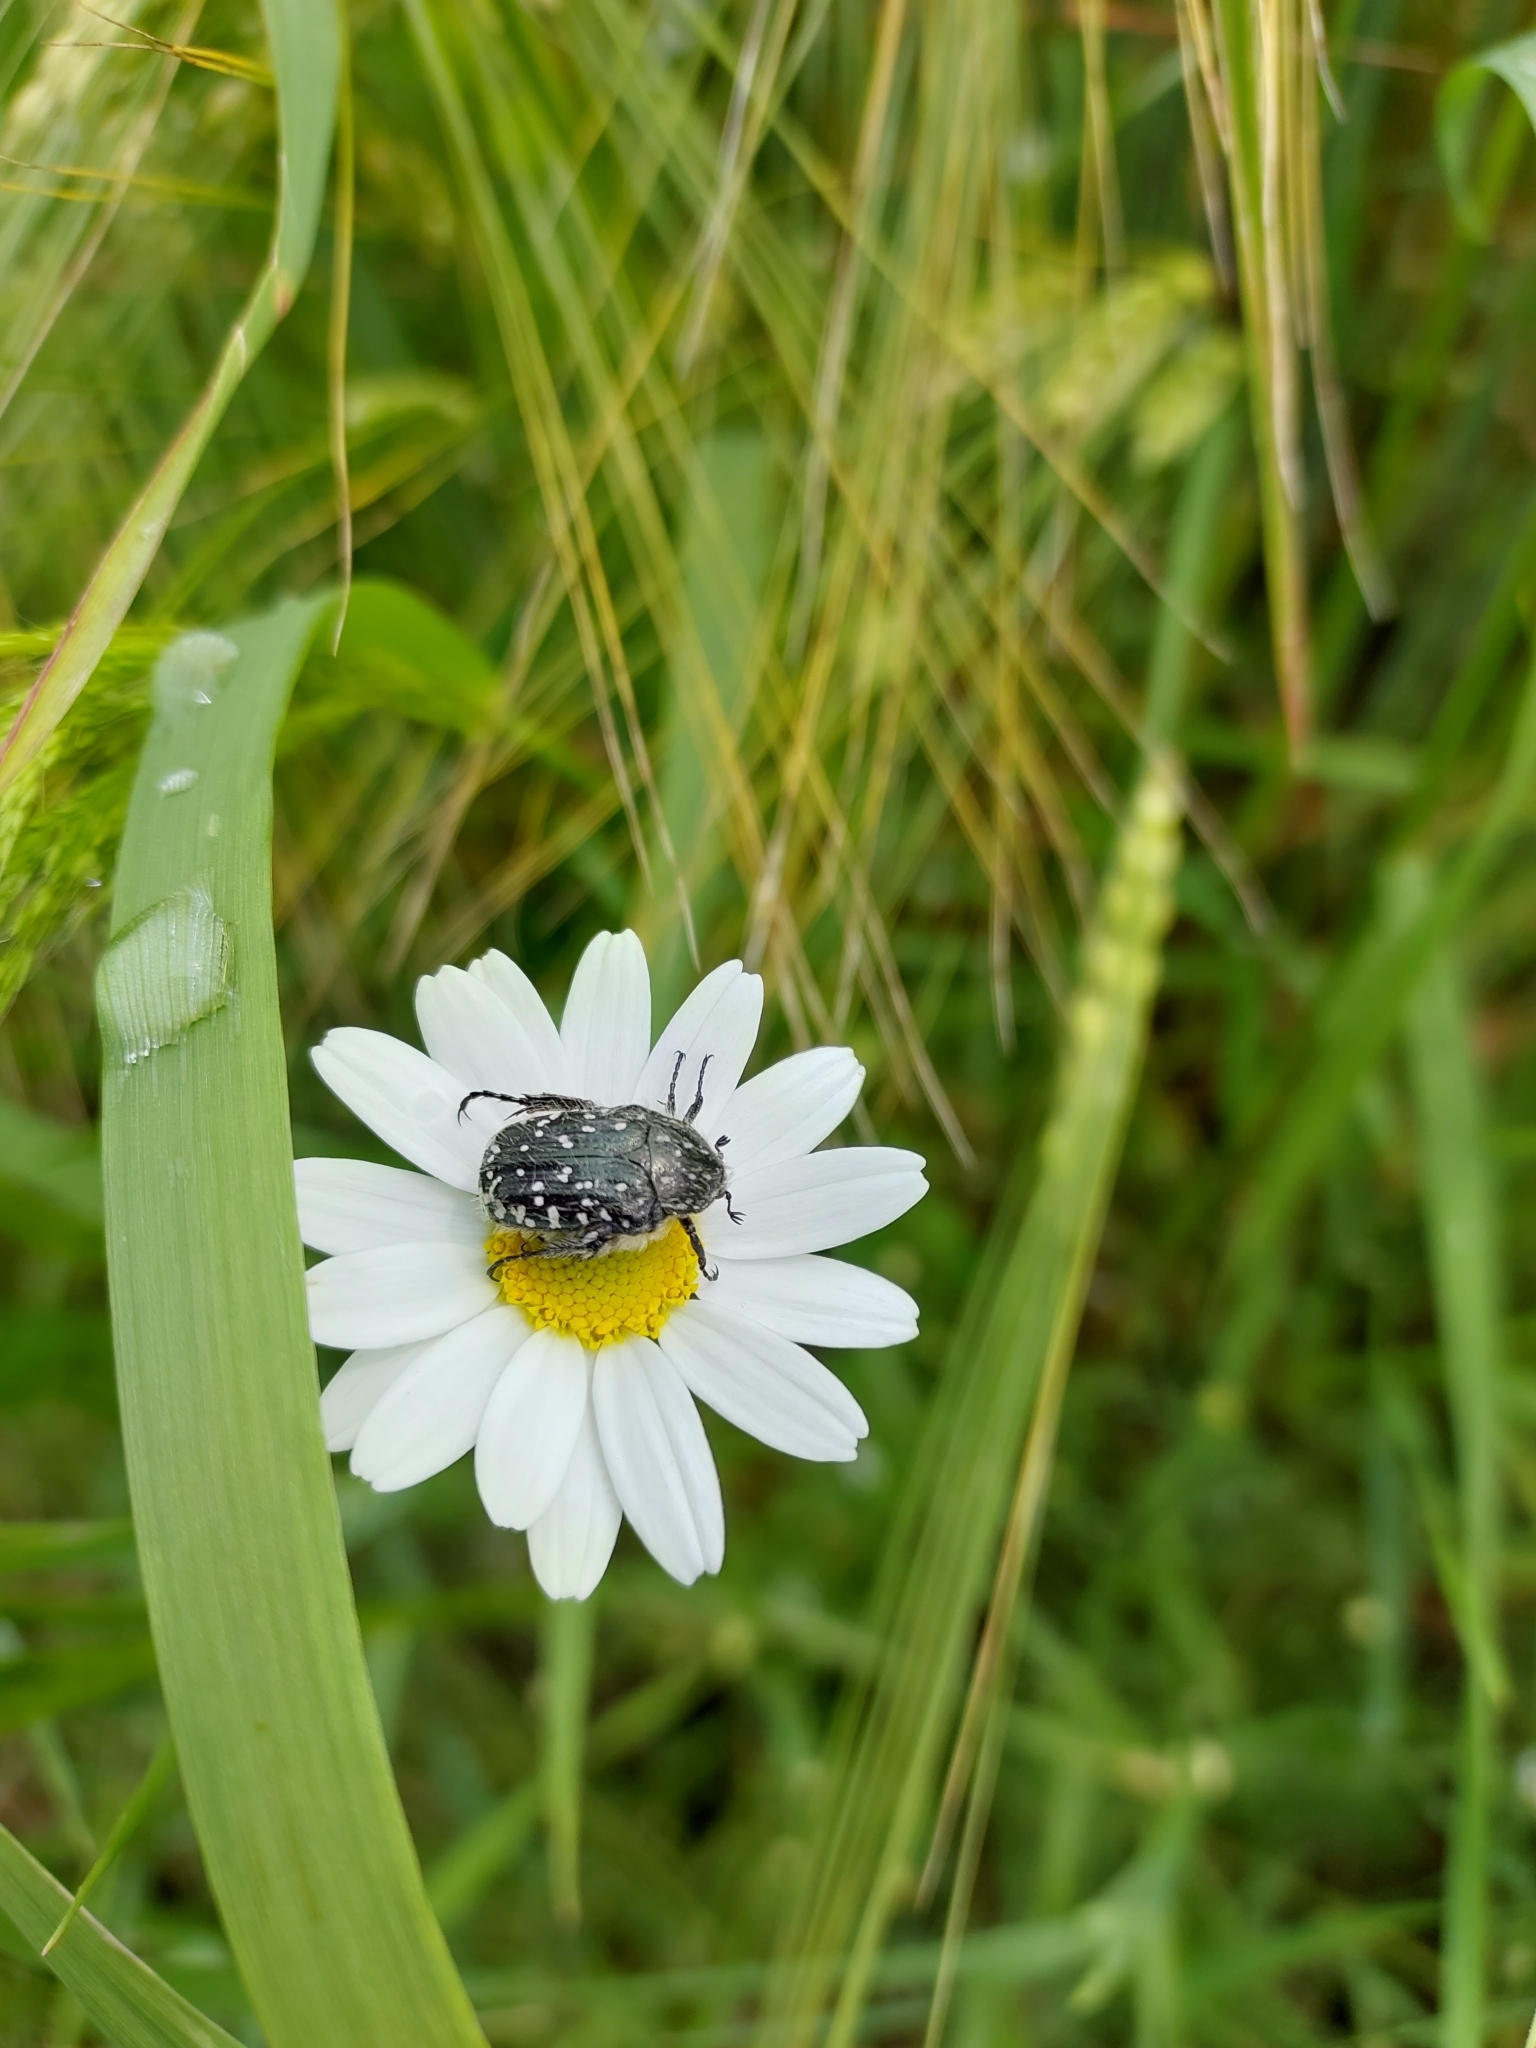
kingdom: Animalia
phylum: Arthropoda
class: Insecta
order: Coleoptera
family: Scarabaeidae
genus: Oxythyrea
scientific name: Oxythyrea funesta
